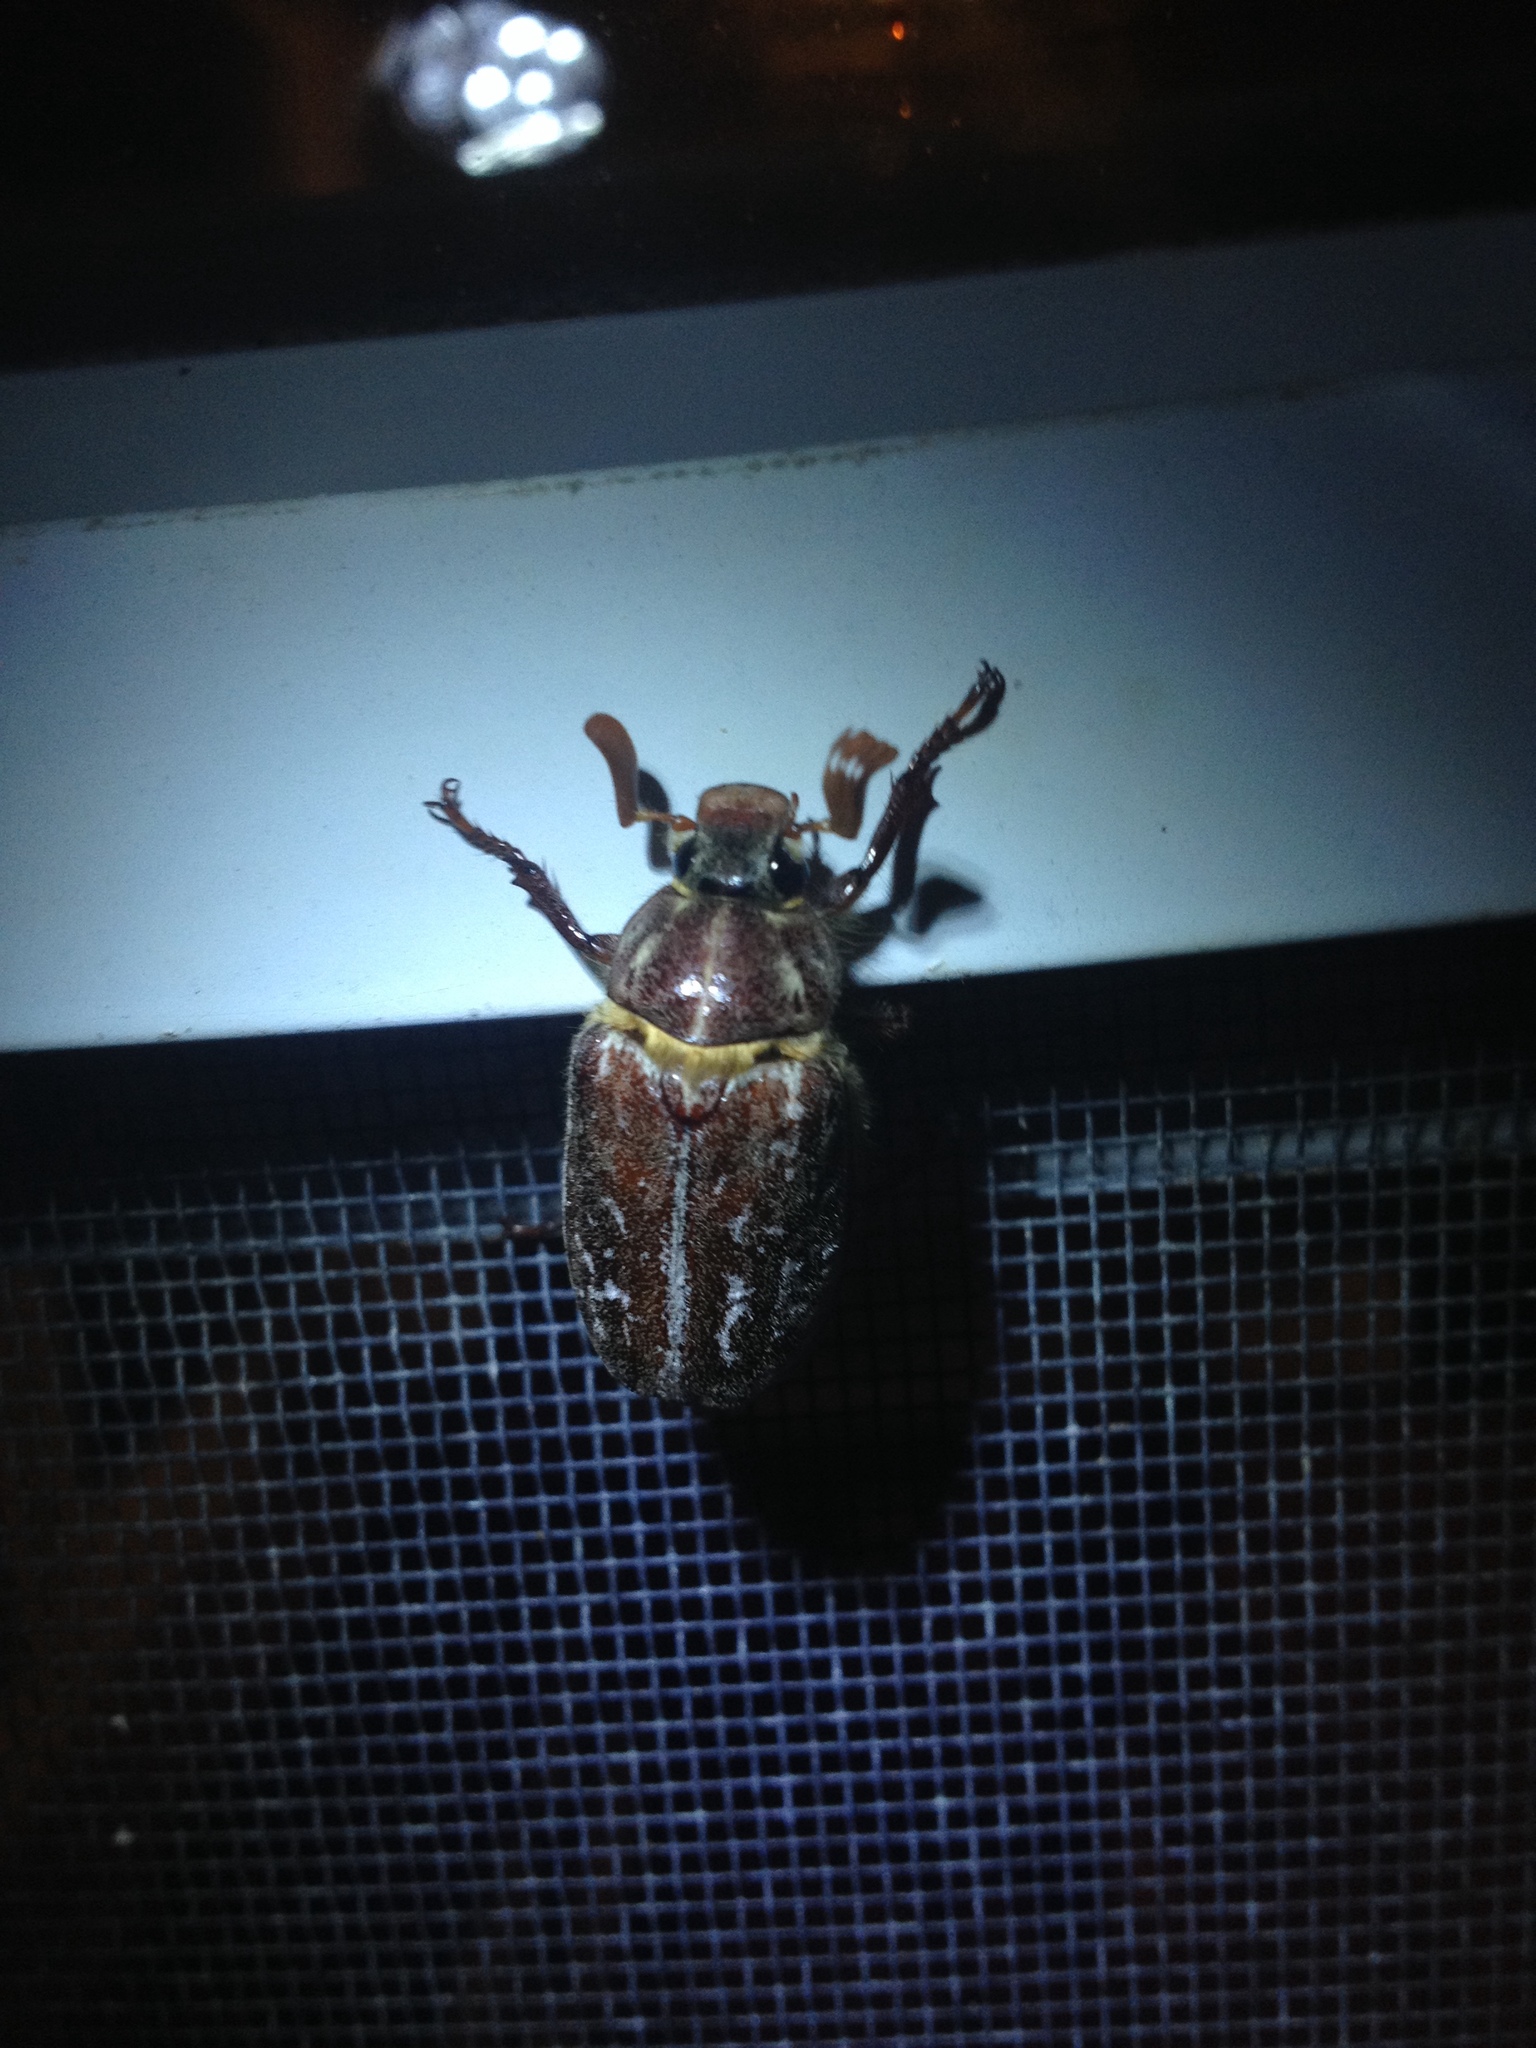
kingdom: Animalia
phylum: Arthropoda
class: Insecta
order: Coleoptera
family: Scarabaeidae
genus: Polyphylla
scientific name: Polyphylla variolosa
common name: Variegated june beetle
